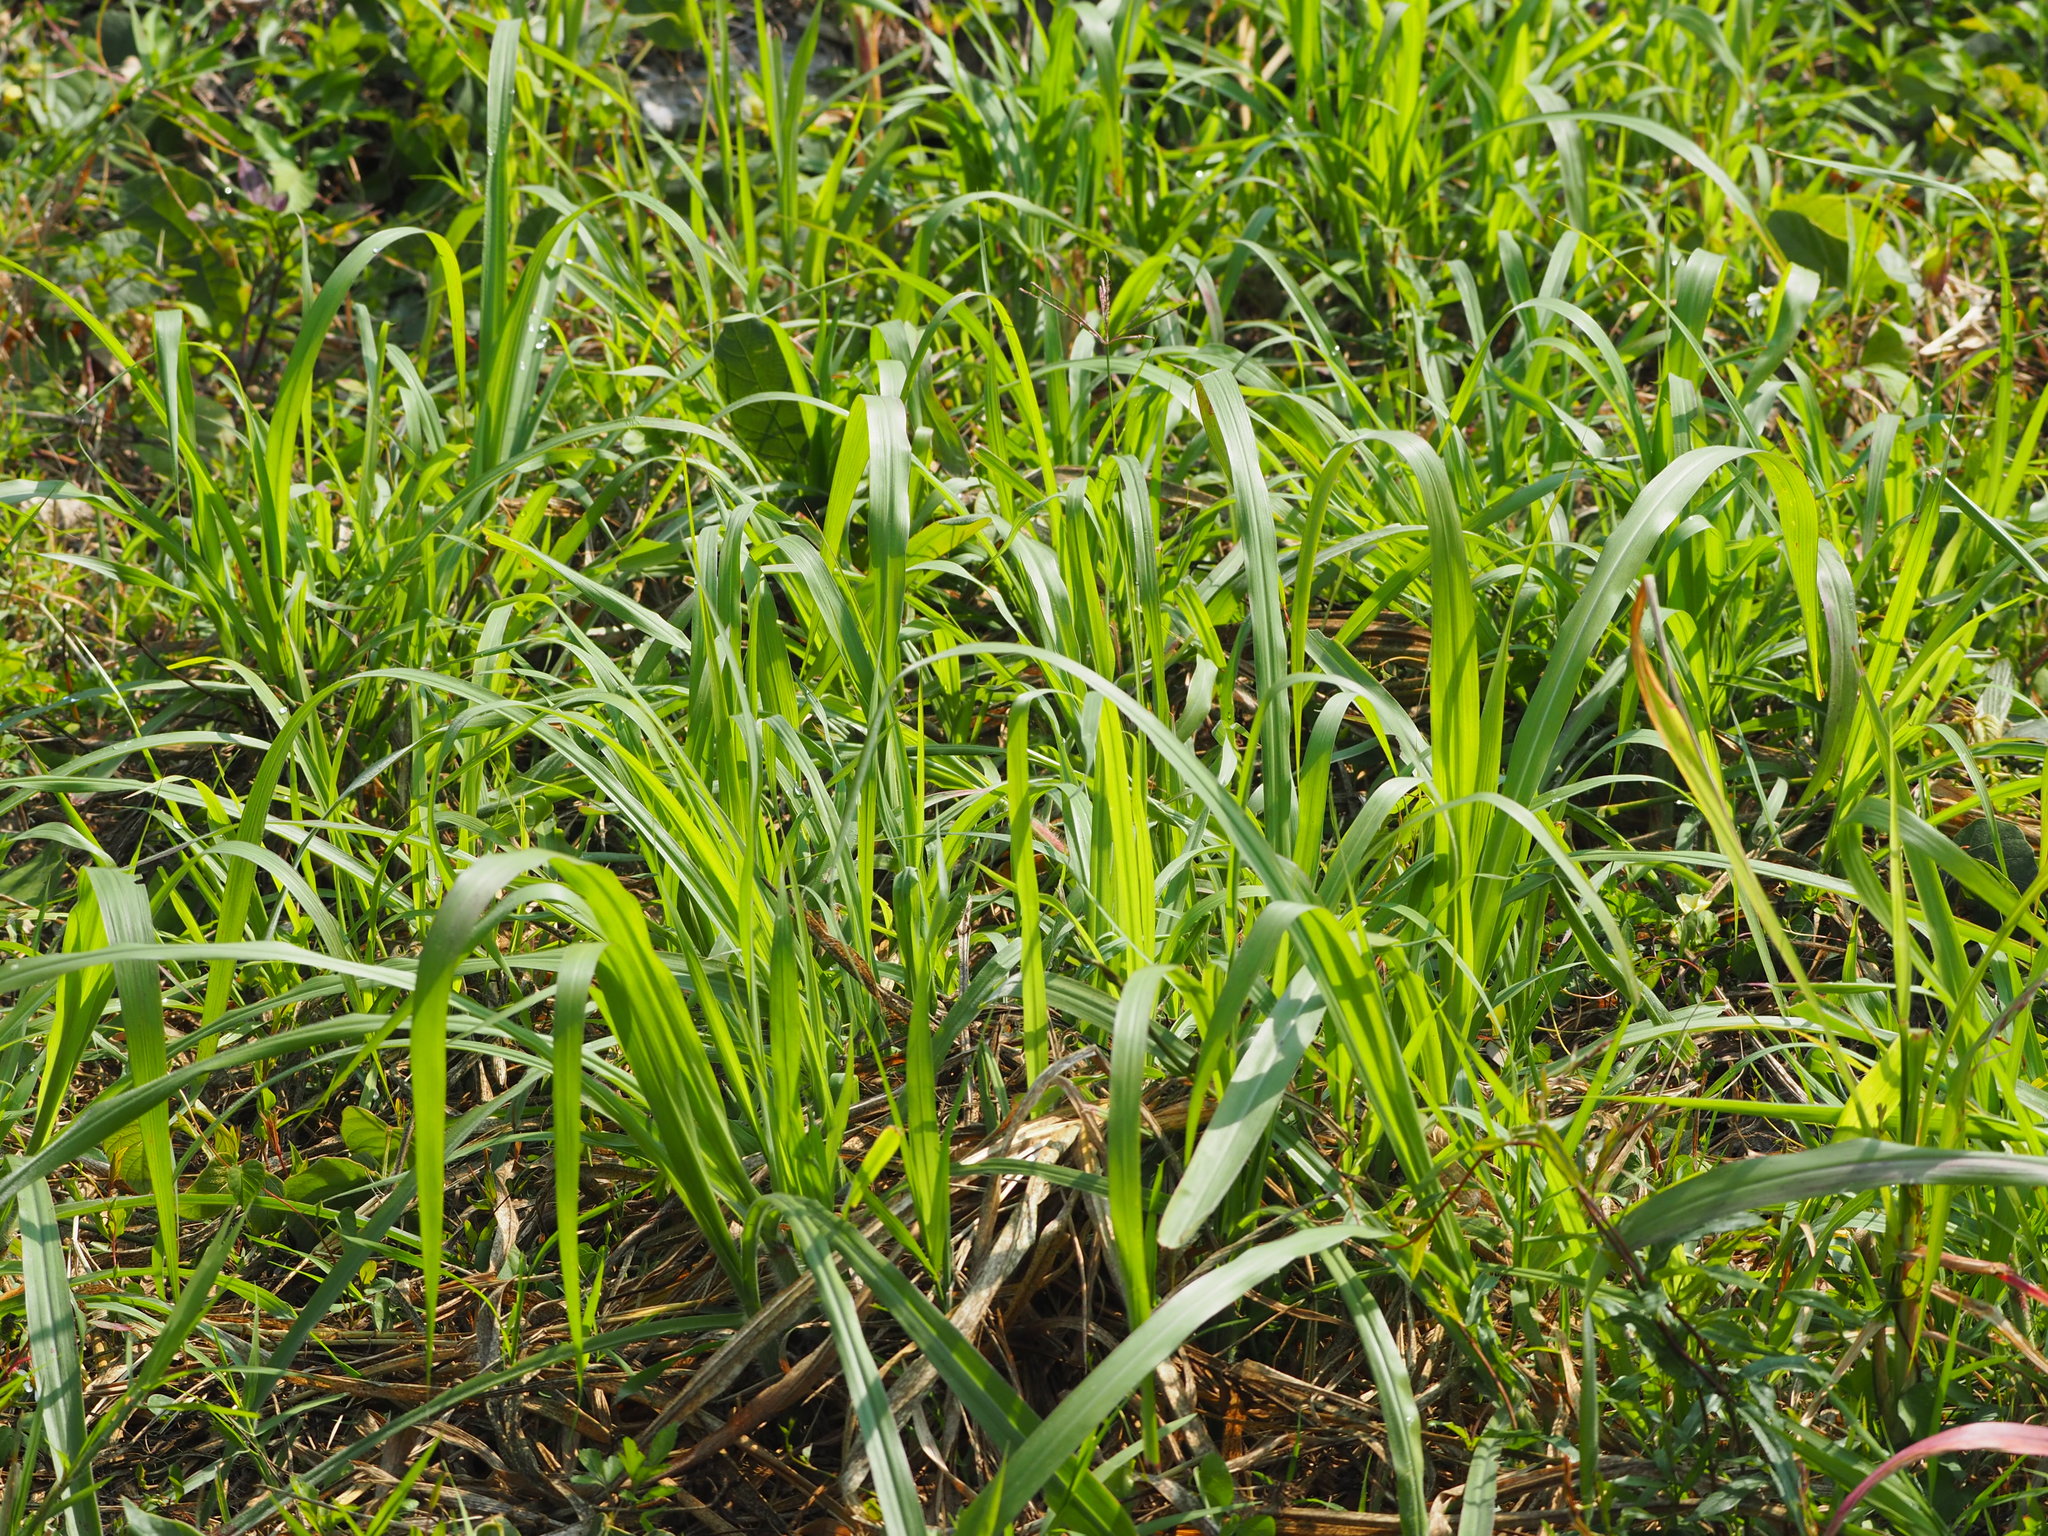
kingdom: Plantae
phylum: Tracheophyta
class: Liliopsida
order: Poales
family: Poaceae
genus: Megathyrsus
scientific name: Megathyrsus maximus
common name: Guineagrass
